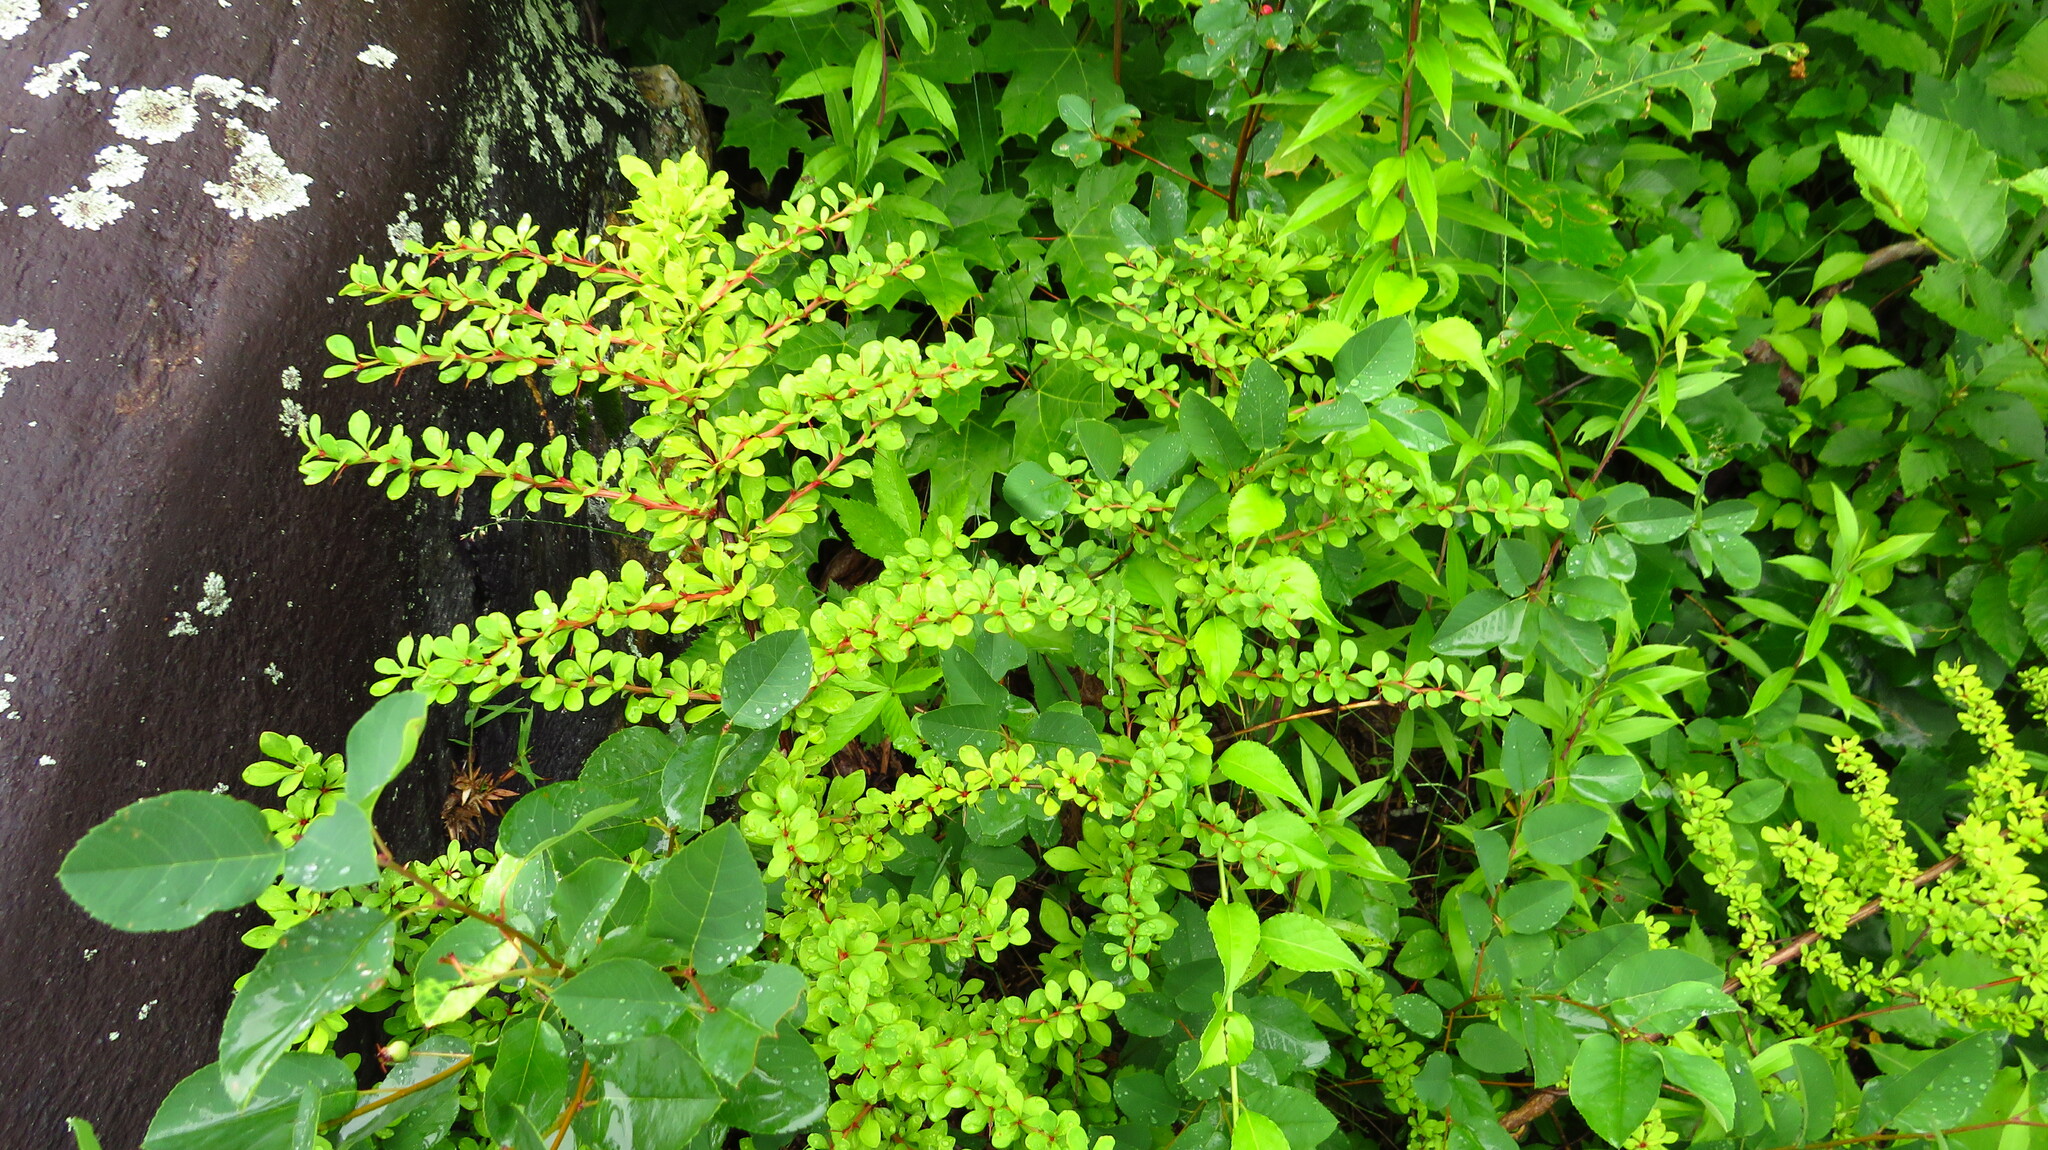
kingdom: Plantae
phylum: Tracheophyta
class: Magnoliopsida
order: Ranunculales
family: Berberidaceae
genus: Berberis
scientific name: Berberis thunbergii
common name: Japanese barberry
